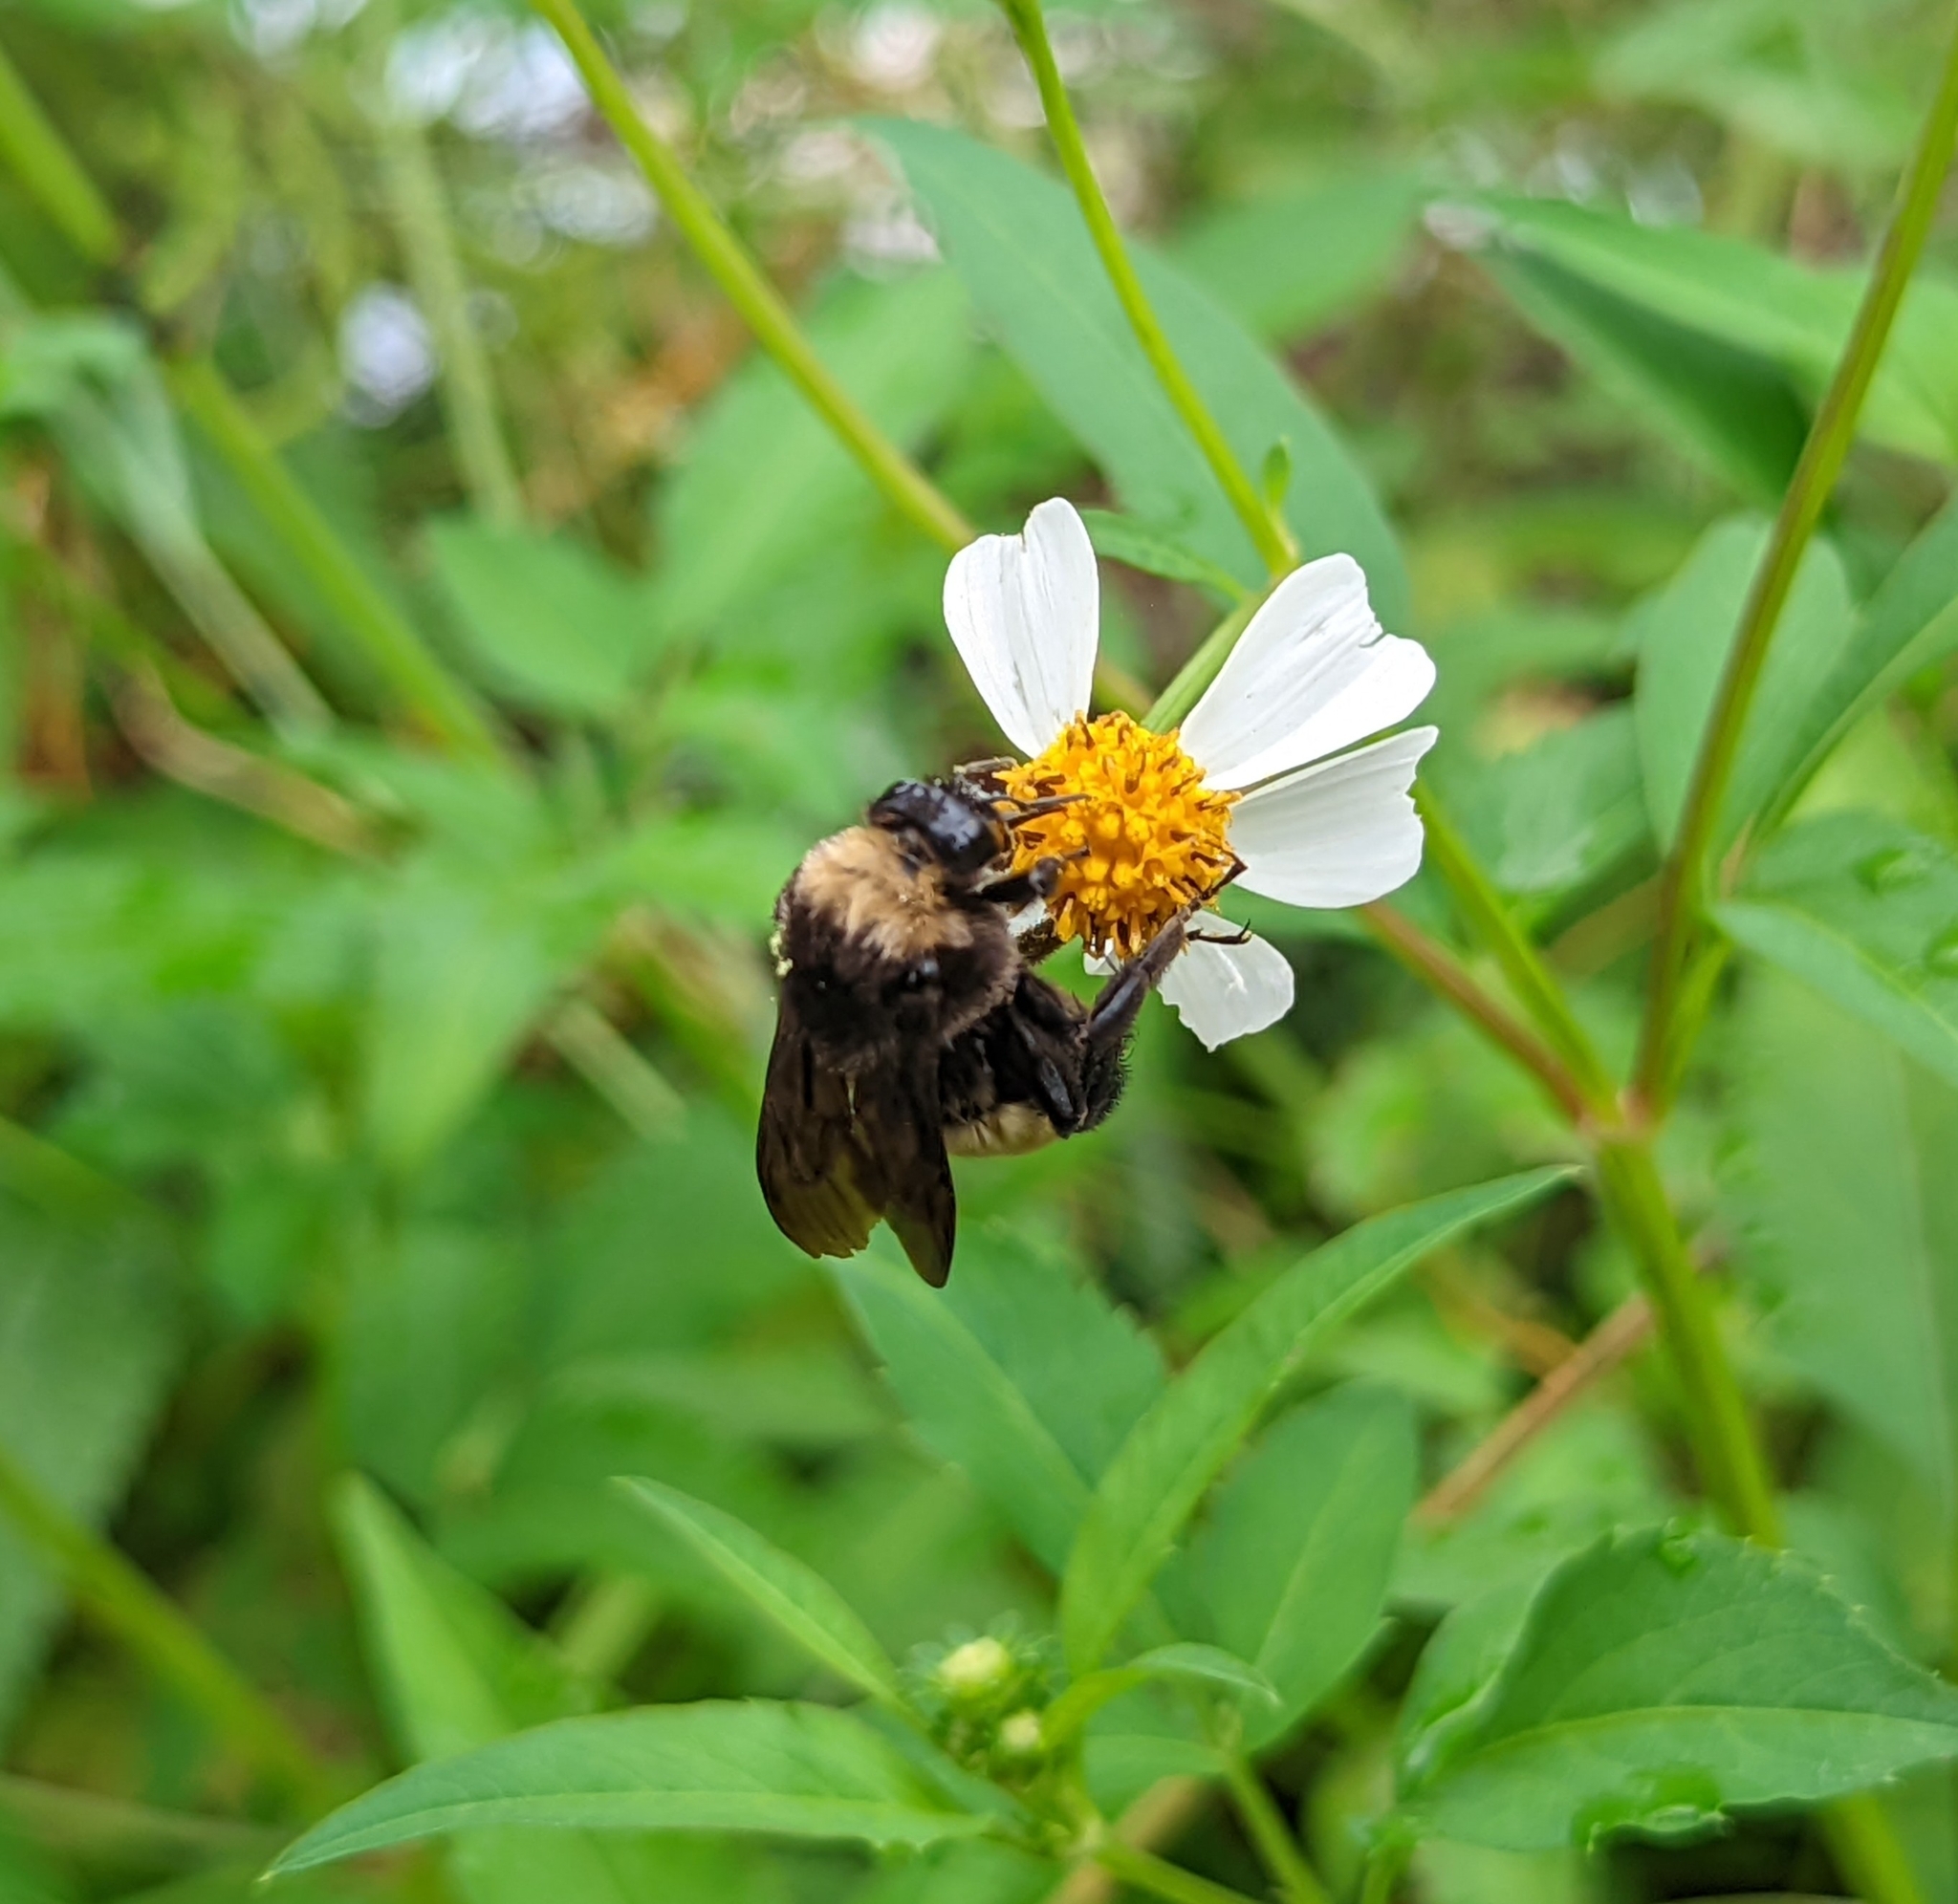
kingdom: Animalia
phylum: Arthropoda
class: Insecta
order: Hymenoptera
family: Apidae
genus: Bombus
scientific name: Bombus pensylvanicus
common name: Bumble bee
